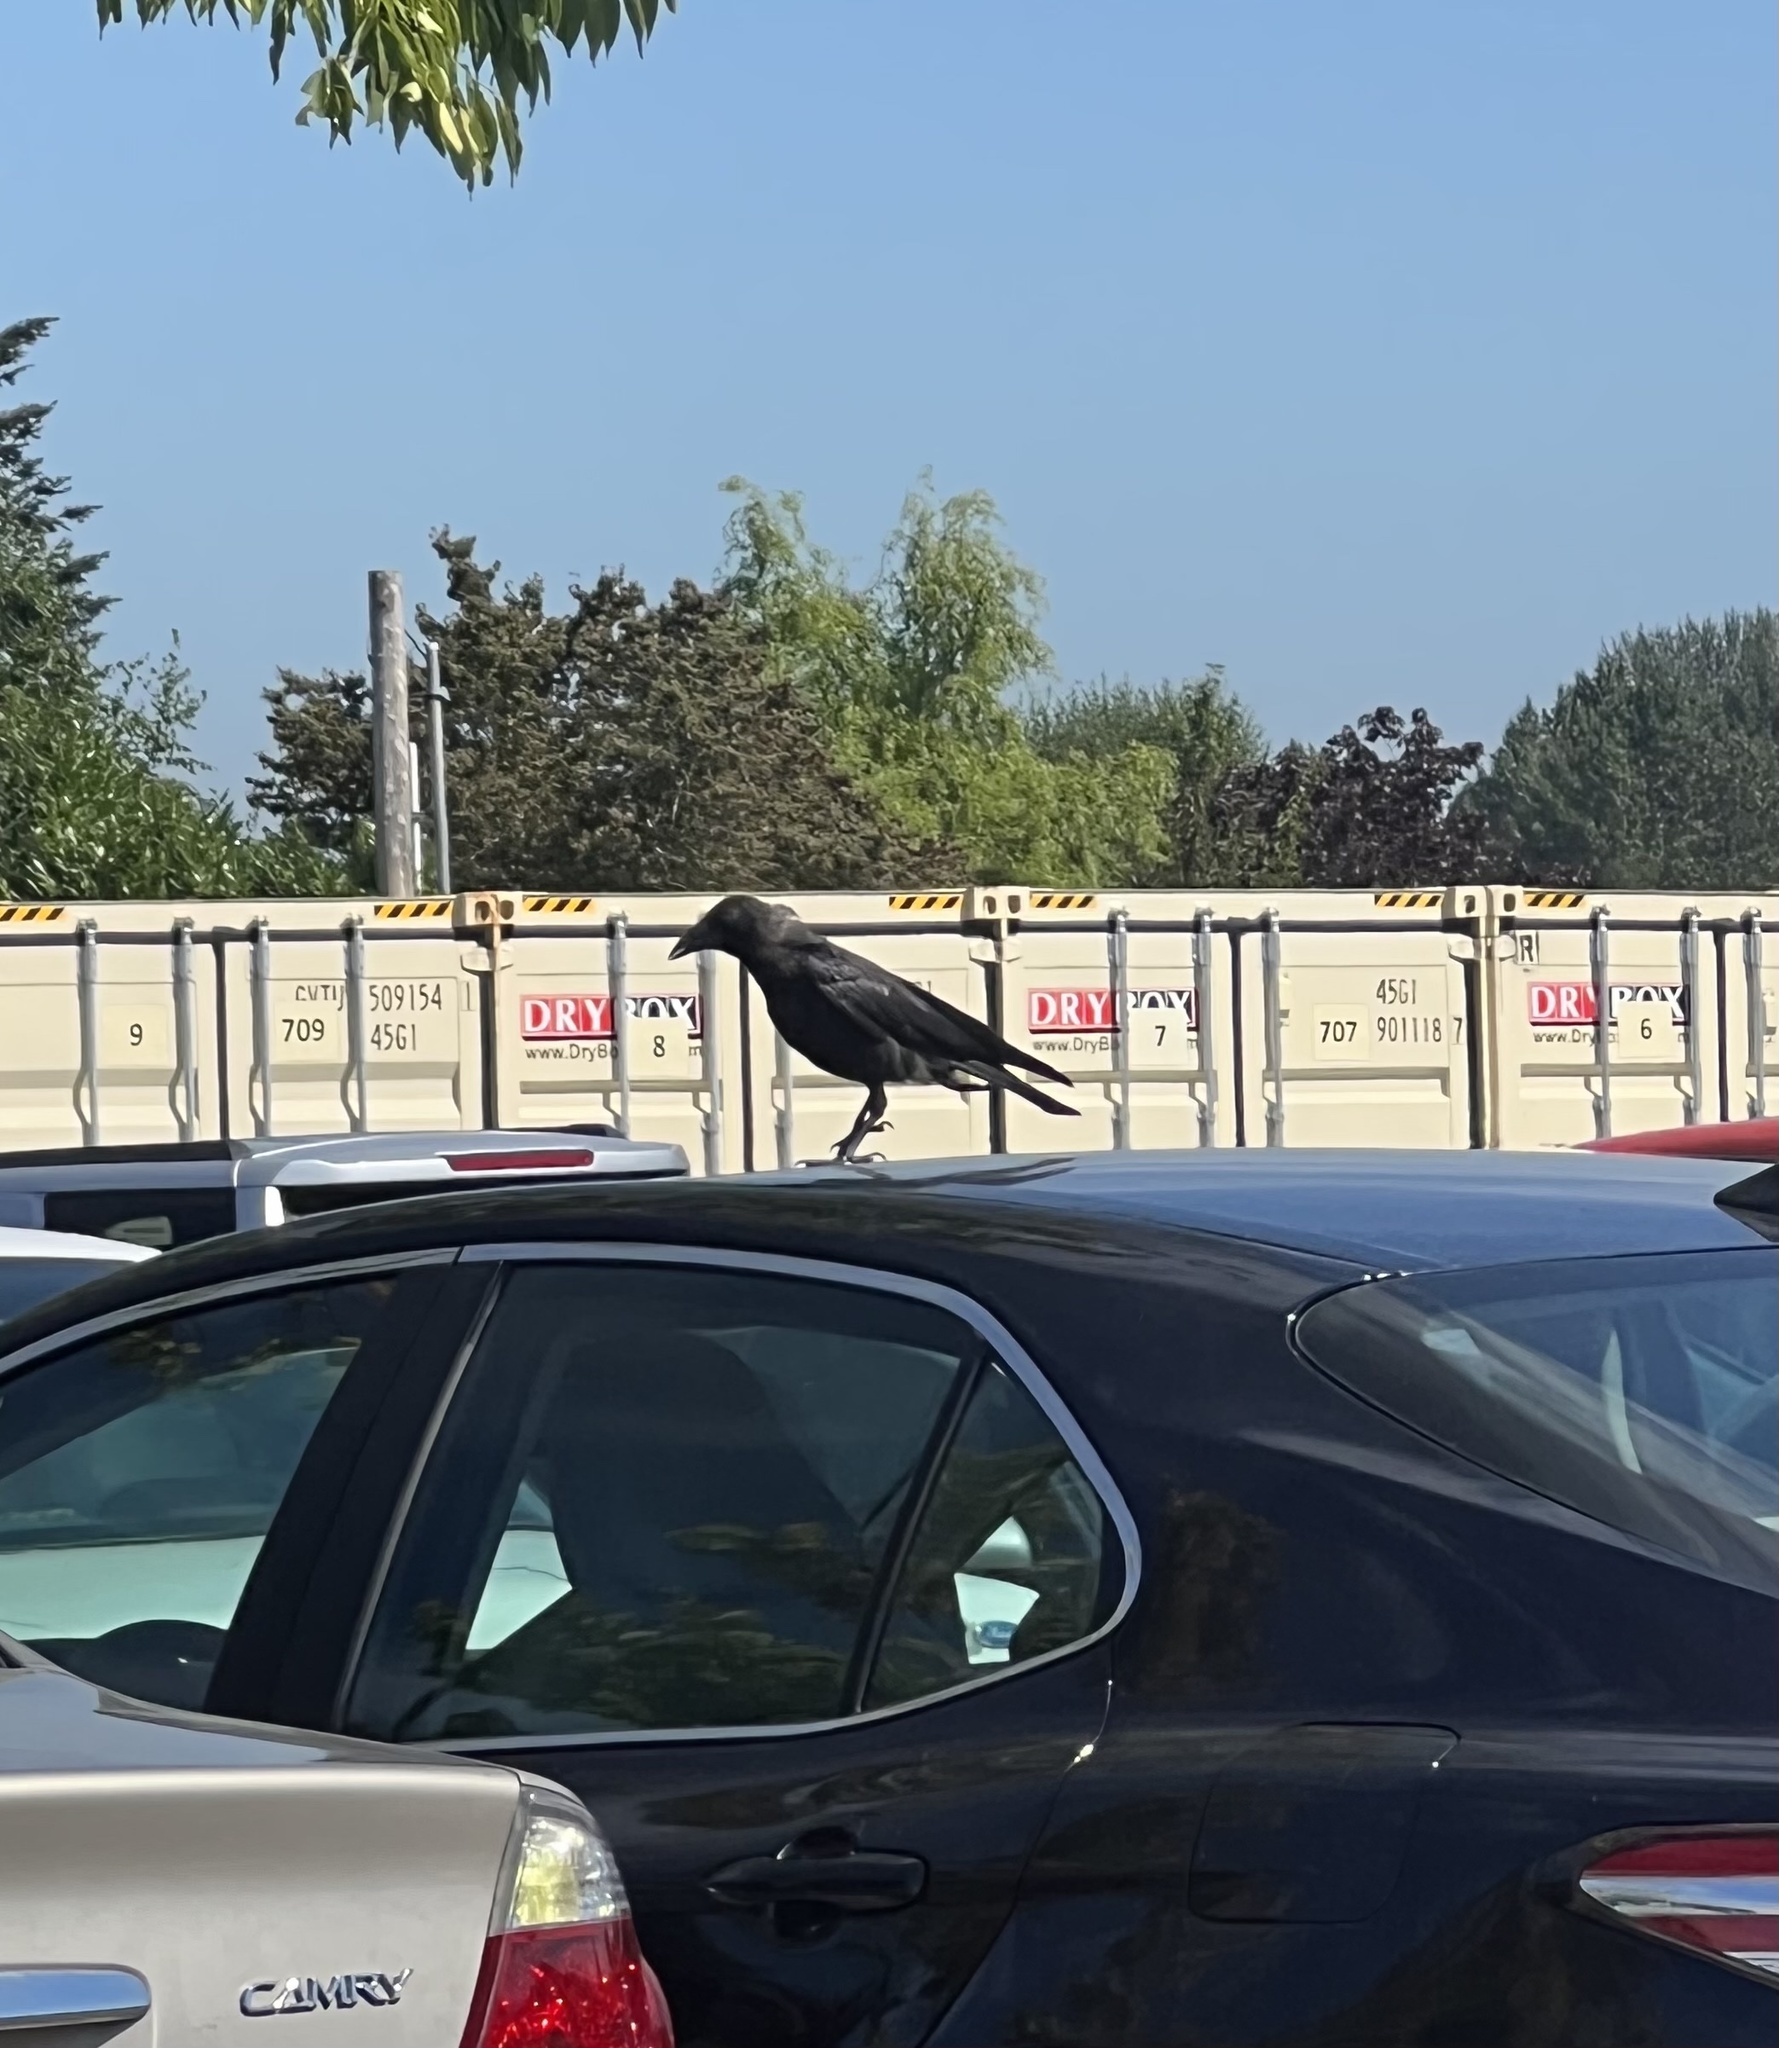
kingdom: Animalia
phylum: Chordata
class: Aves
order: Passeriformes
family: Corvidae
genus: Corvus
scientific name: Corvus brachyrhynchos
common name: American crow
